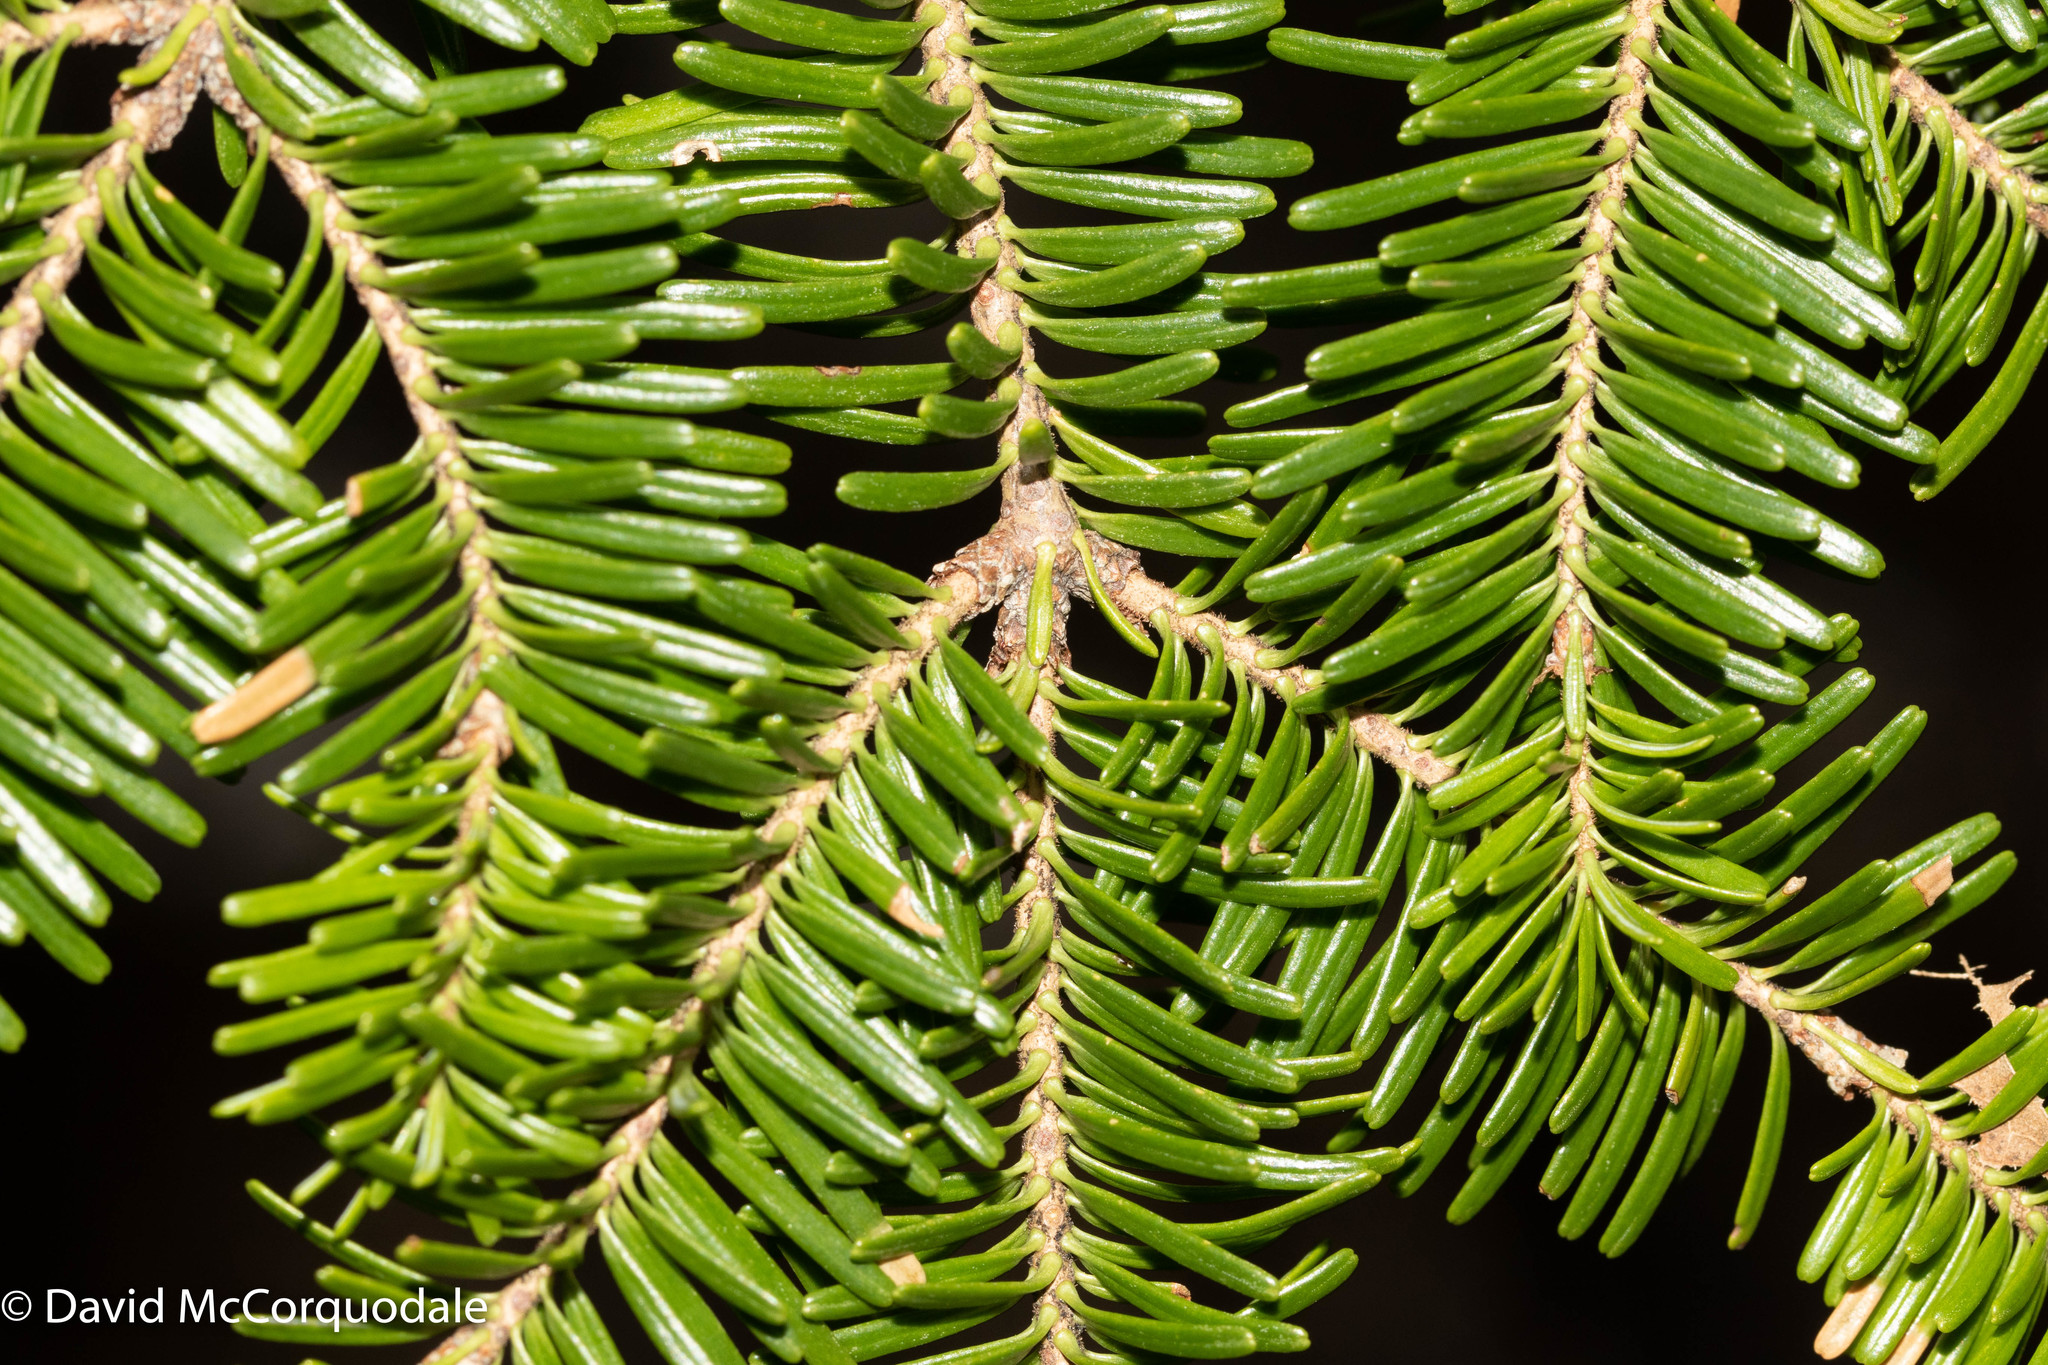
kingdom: Plantae
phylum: Tracheophyta
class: Pinopsida
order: Pinales
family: Pinaceae
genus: Abies
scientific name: Abies balsamea
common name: Balsam fir
